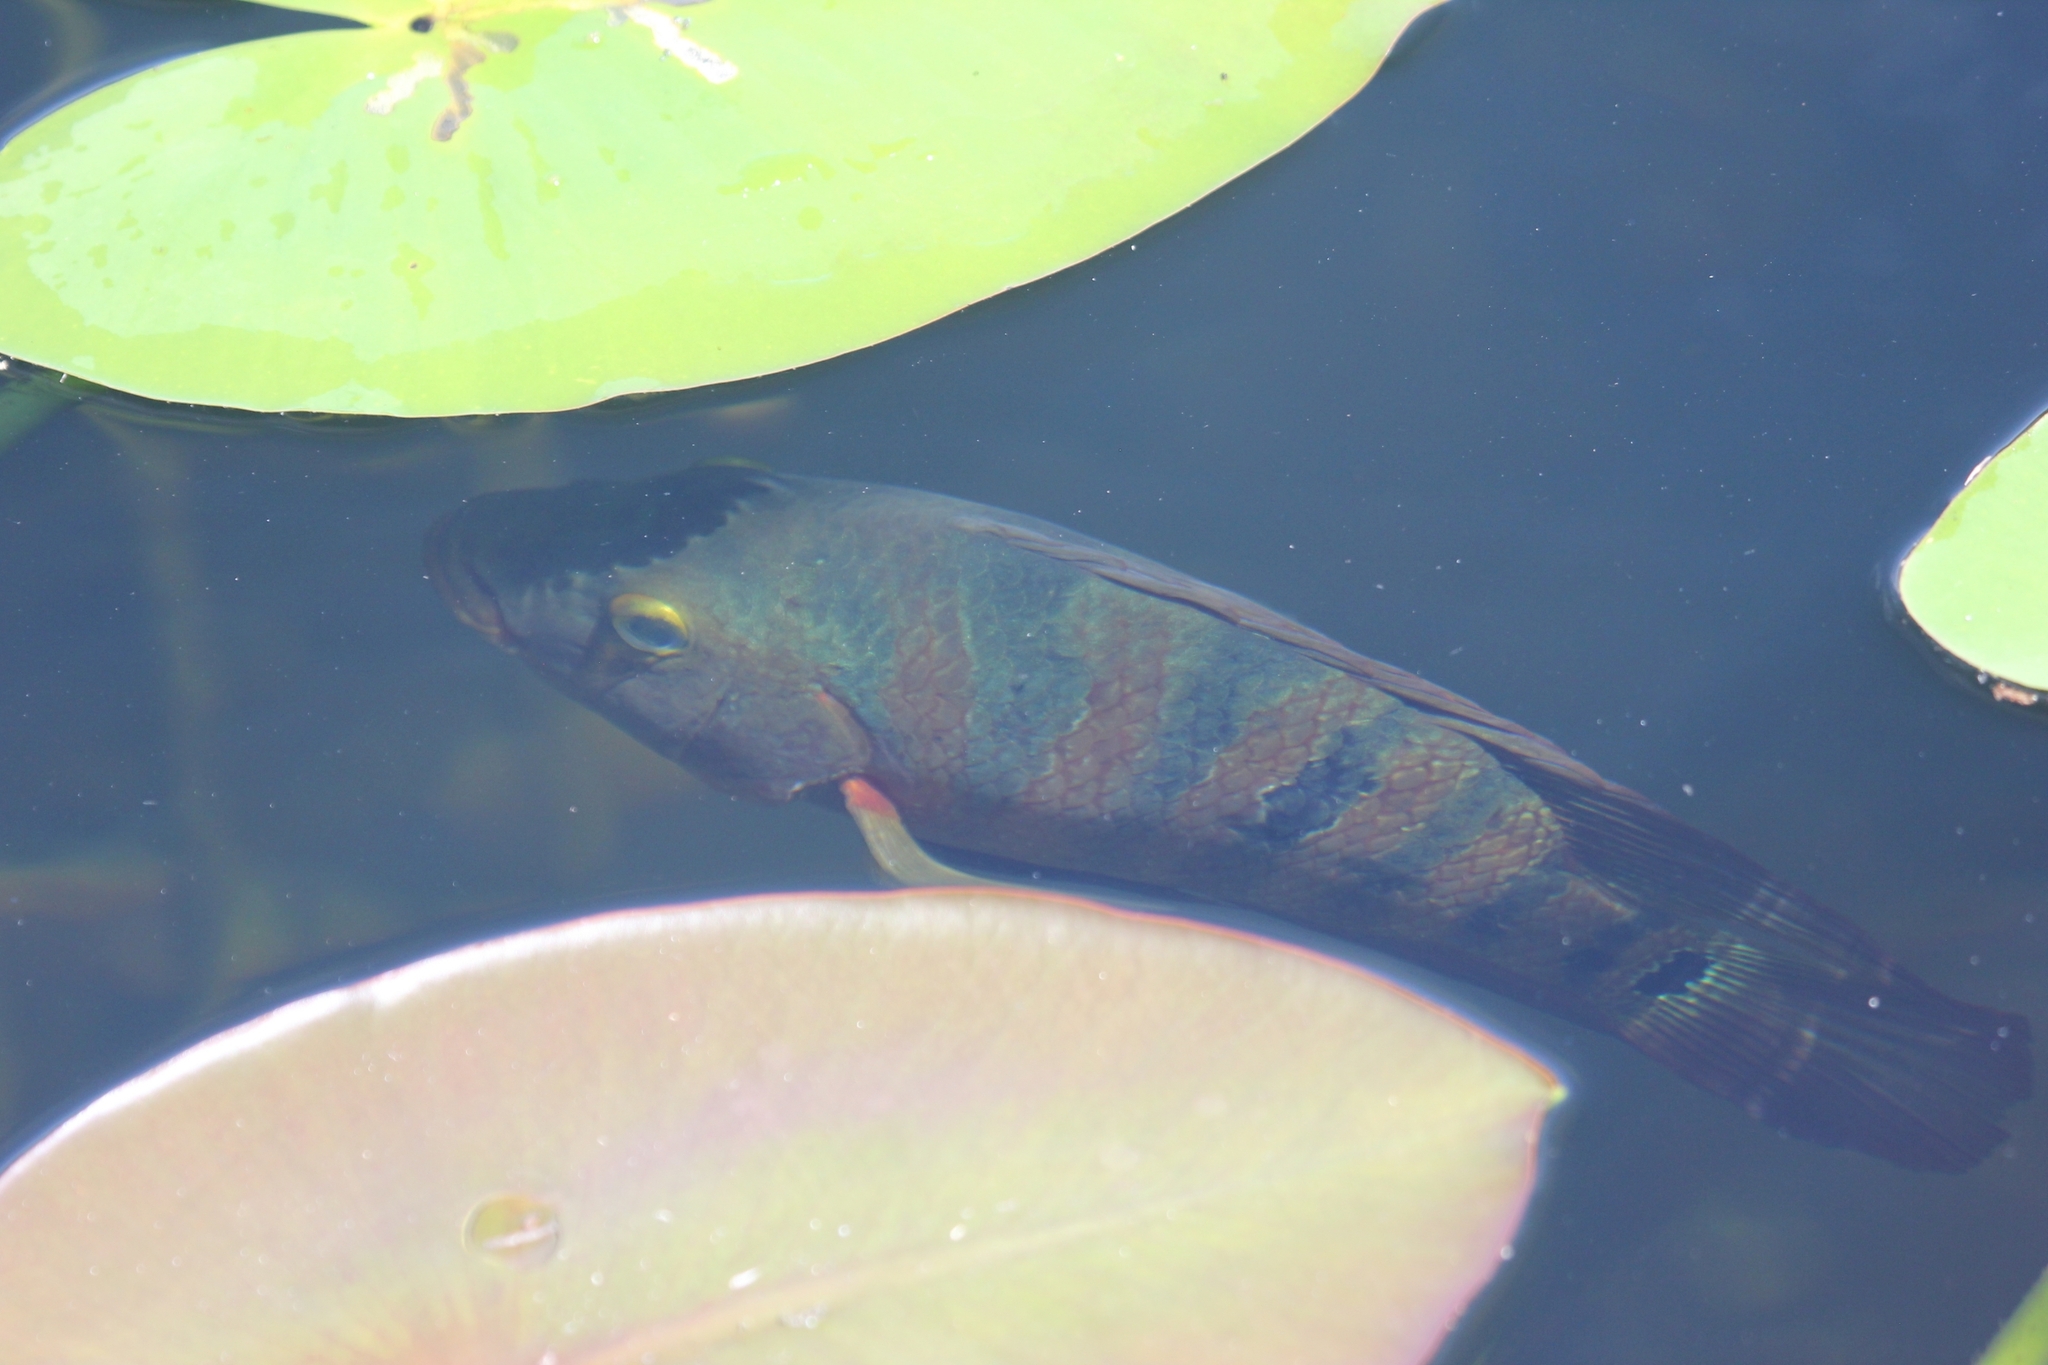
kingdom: Animalia
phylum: Chordata
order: Perciformes
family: Cichlidae
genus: Mayaheros
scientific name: Mayaheros urophthalmus
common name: Mayan cichlid
